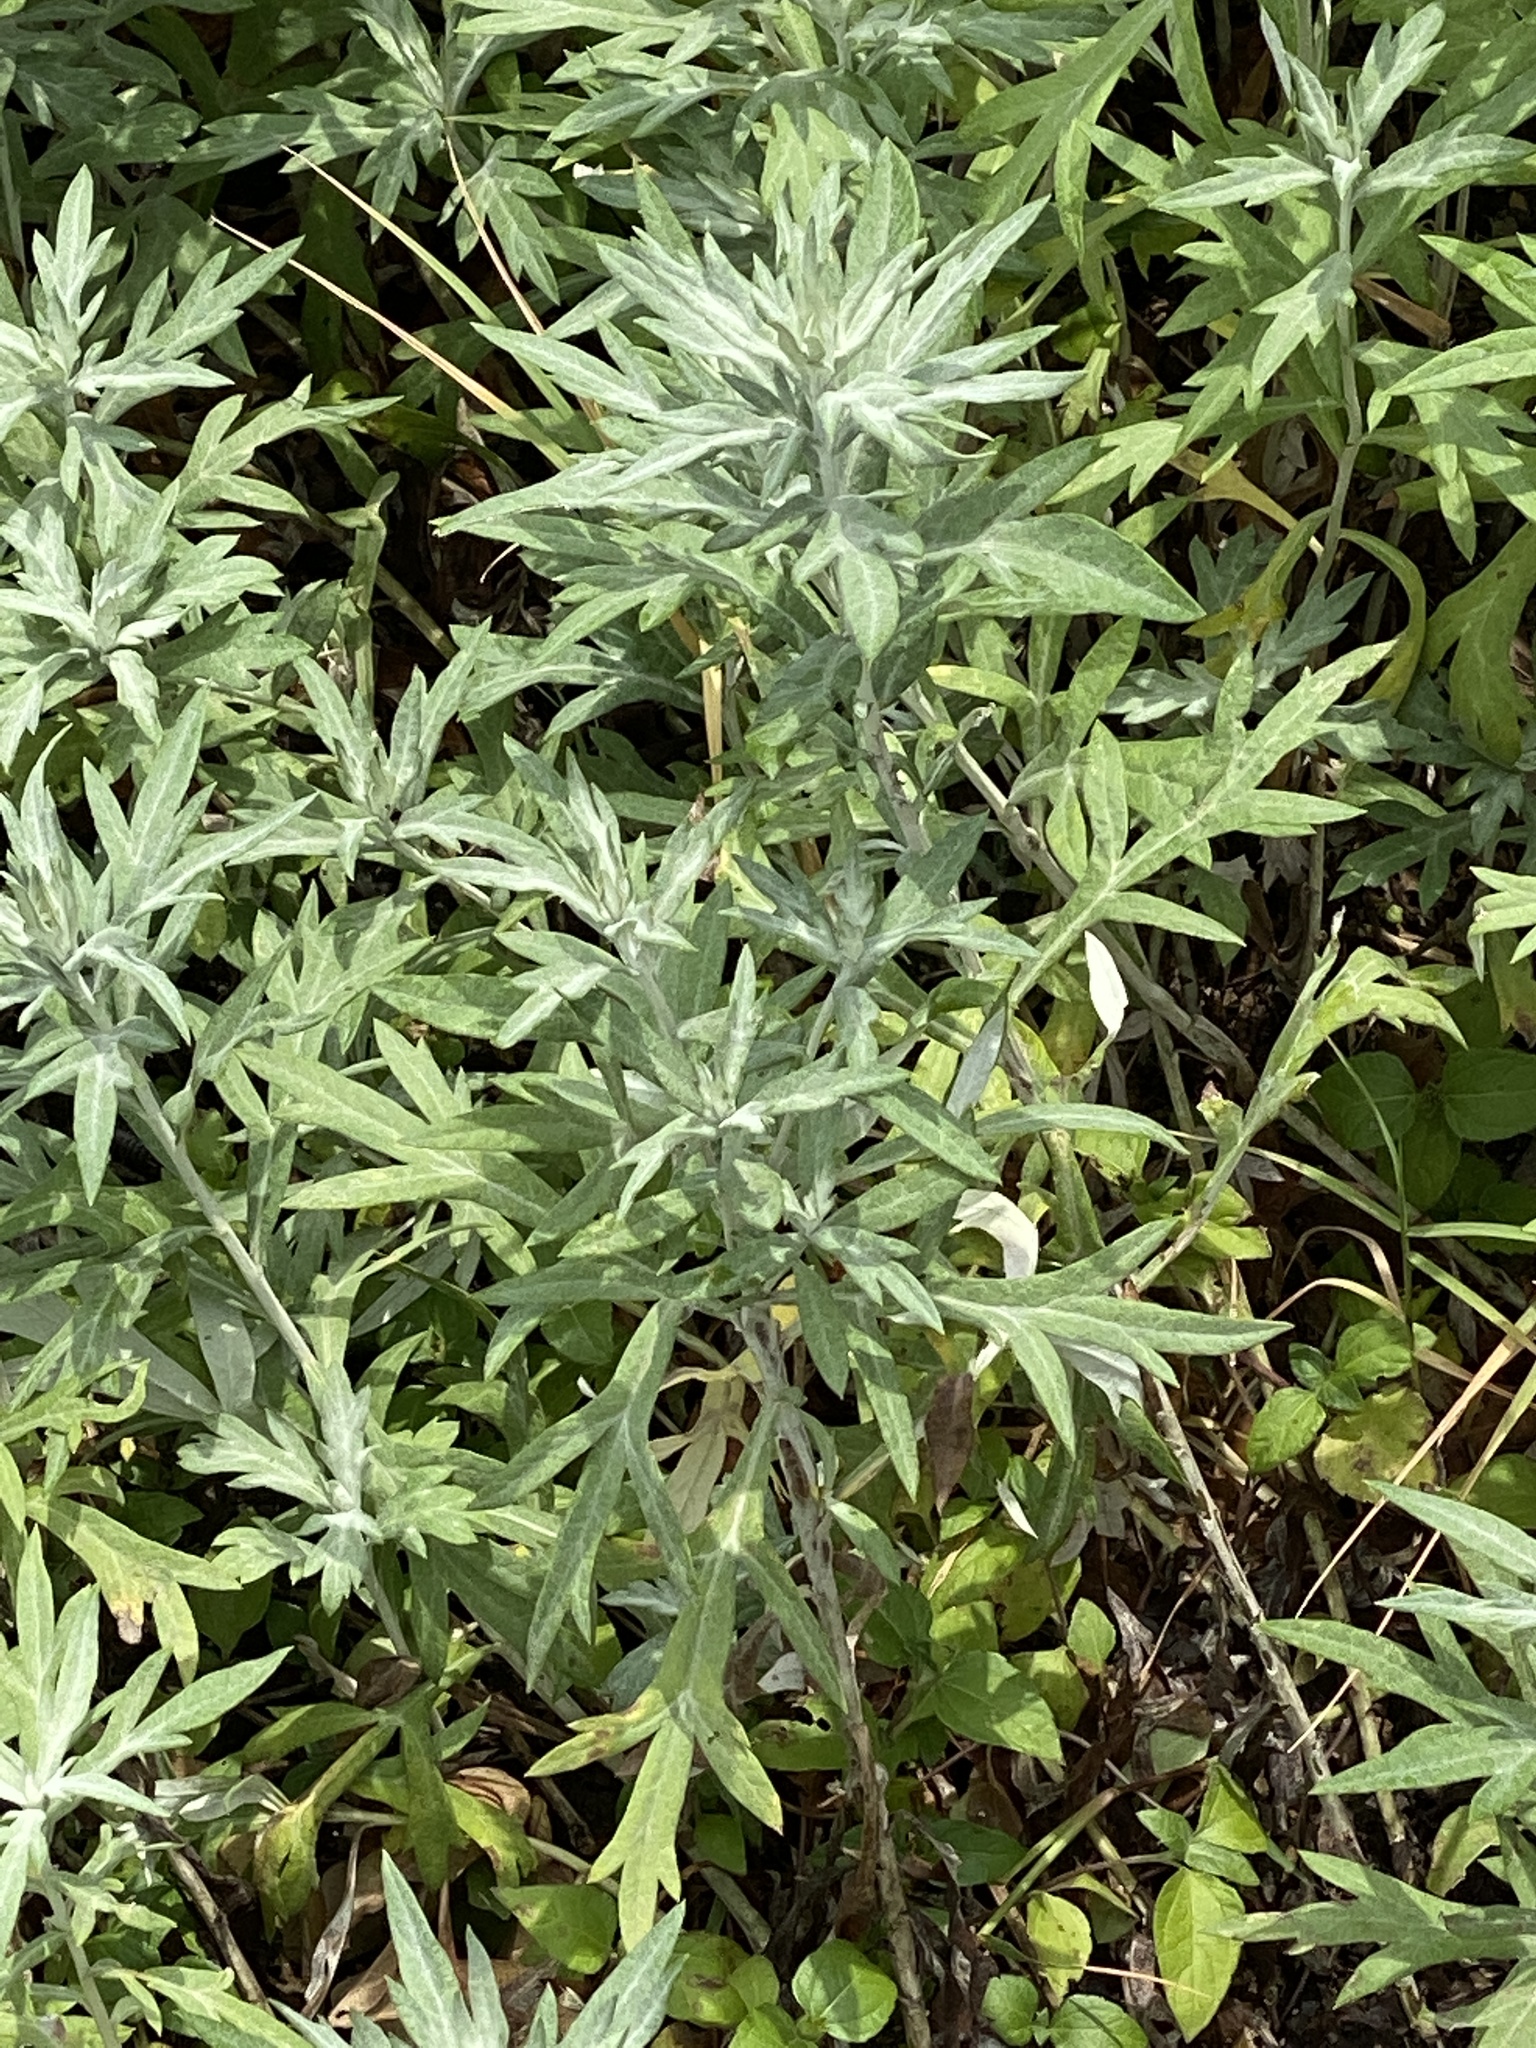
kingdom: Plantae
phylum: Tracheophyta
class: Magnoliopsida
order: Asterales
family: Asteraceae
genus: Artemisia
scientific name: Artemisia ludoviciana
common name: Western mugwort
